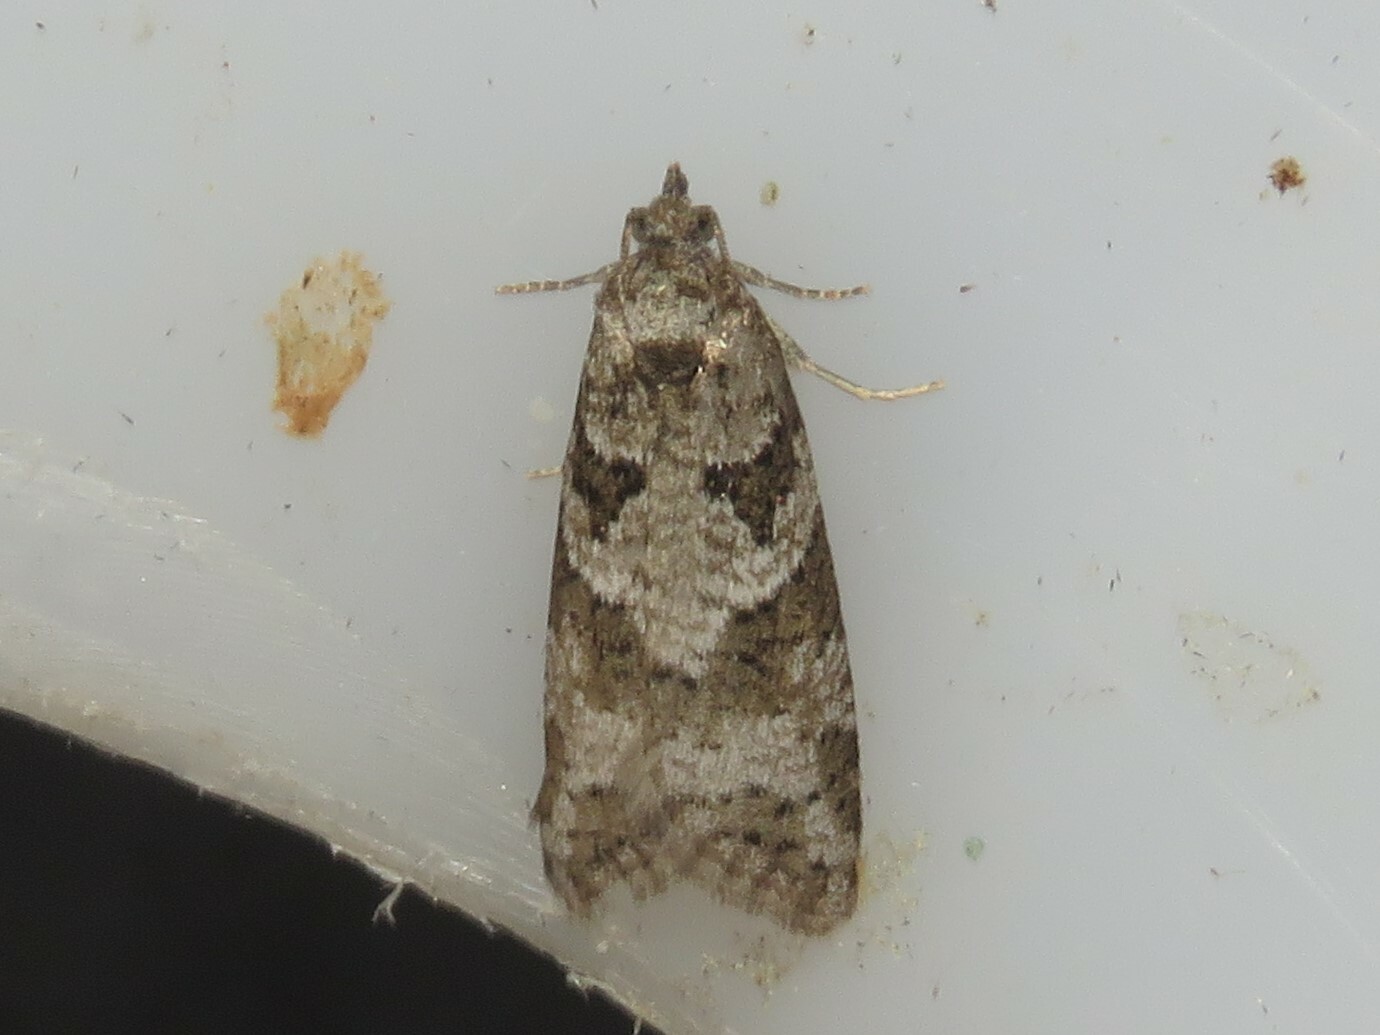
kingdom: Animalia
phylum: Arthropoda
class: Insecta
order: Lepidoptera
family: Tortricidae
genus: Cnephasia
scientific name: Cnephasia stephensiana
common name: Grey tortrix
